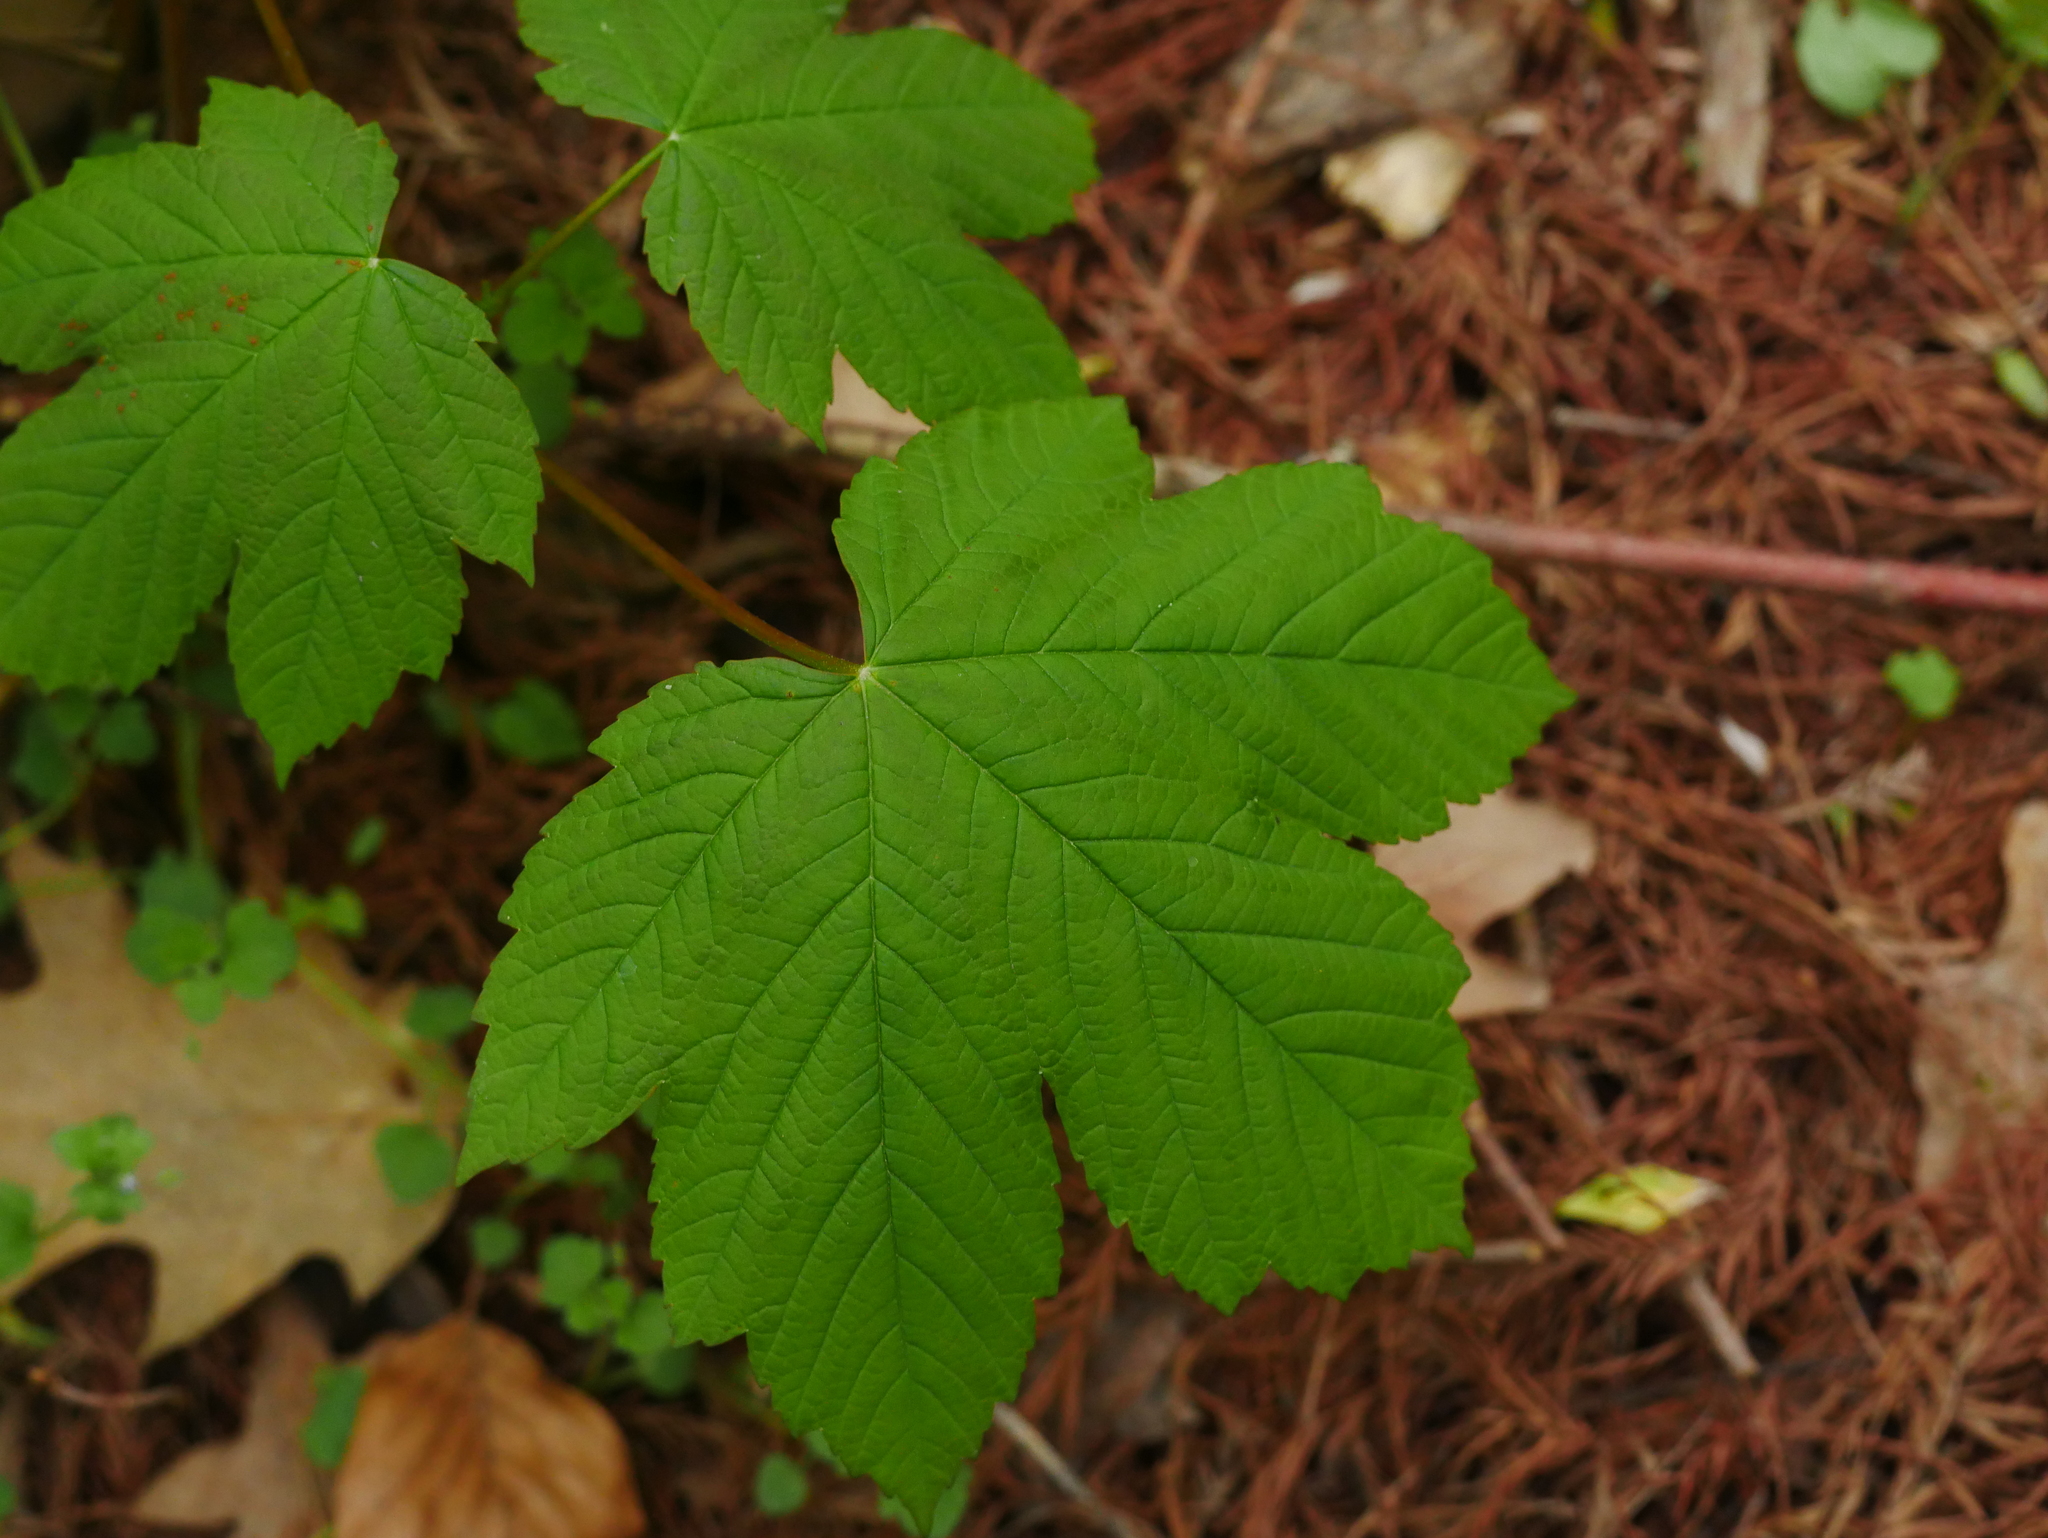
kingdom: Plantae
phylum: Tracheophyta
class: Magnoliopsida
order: Sapindales
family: Sapindaceae
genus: Acer
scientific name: Acer pseudoplatanus
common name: Sycamore
